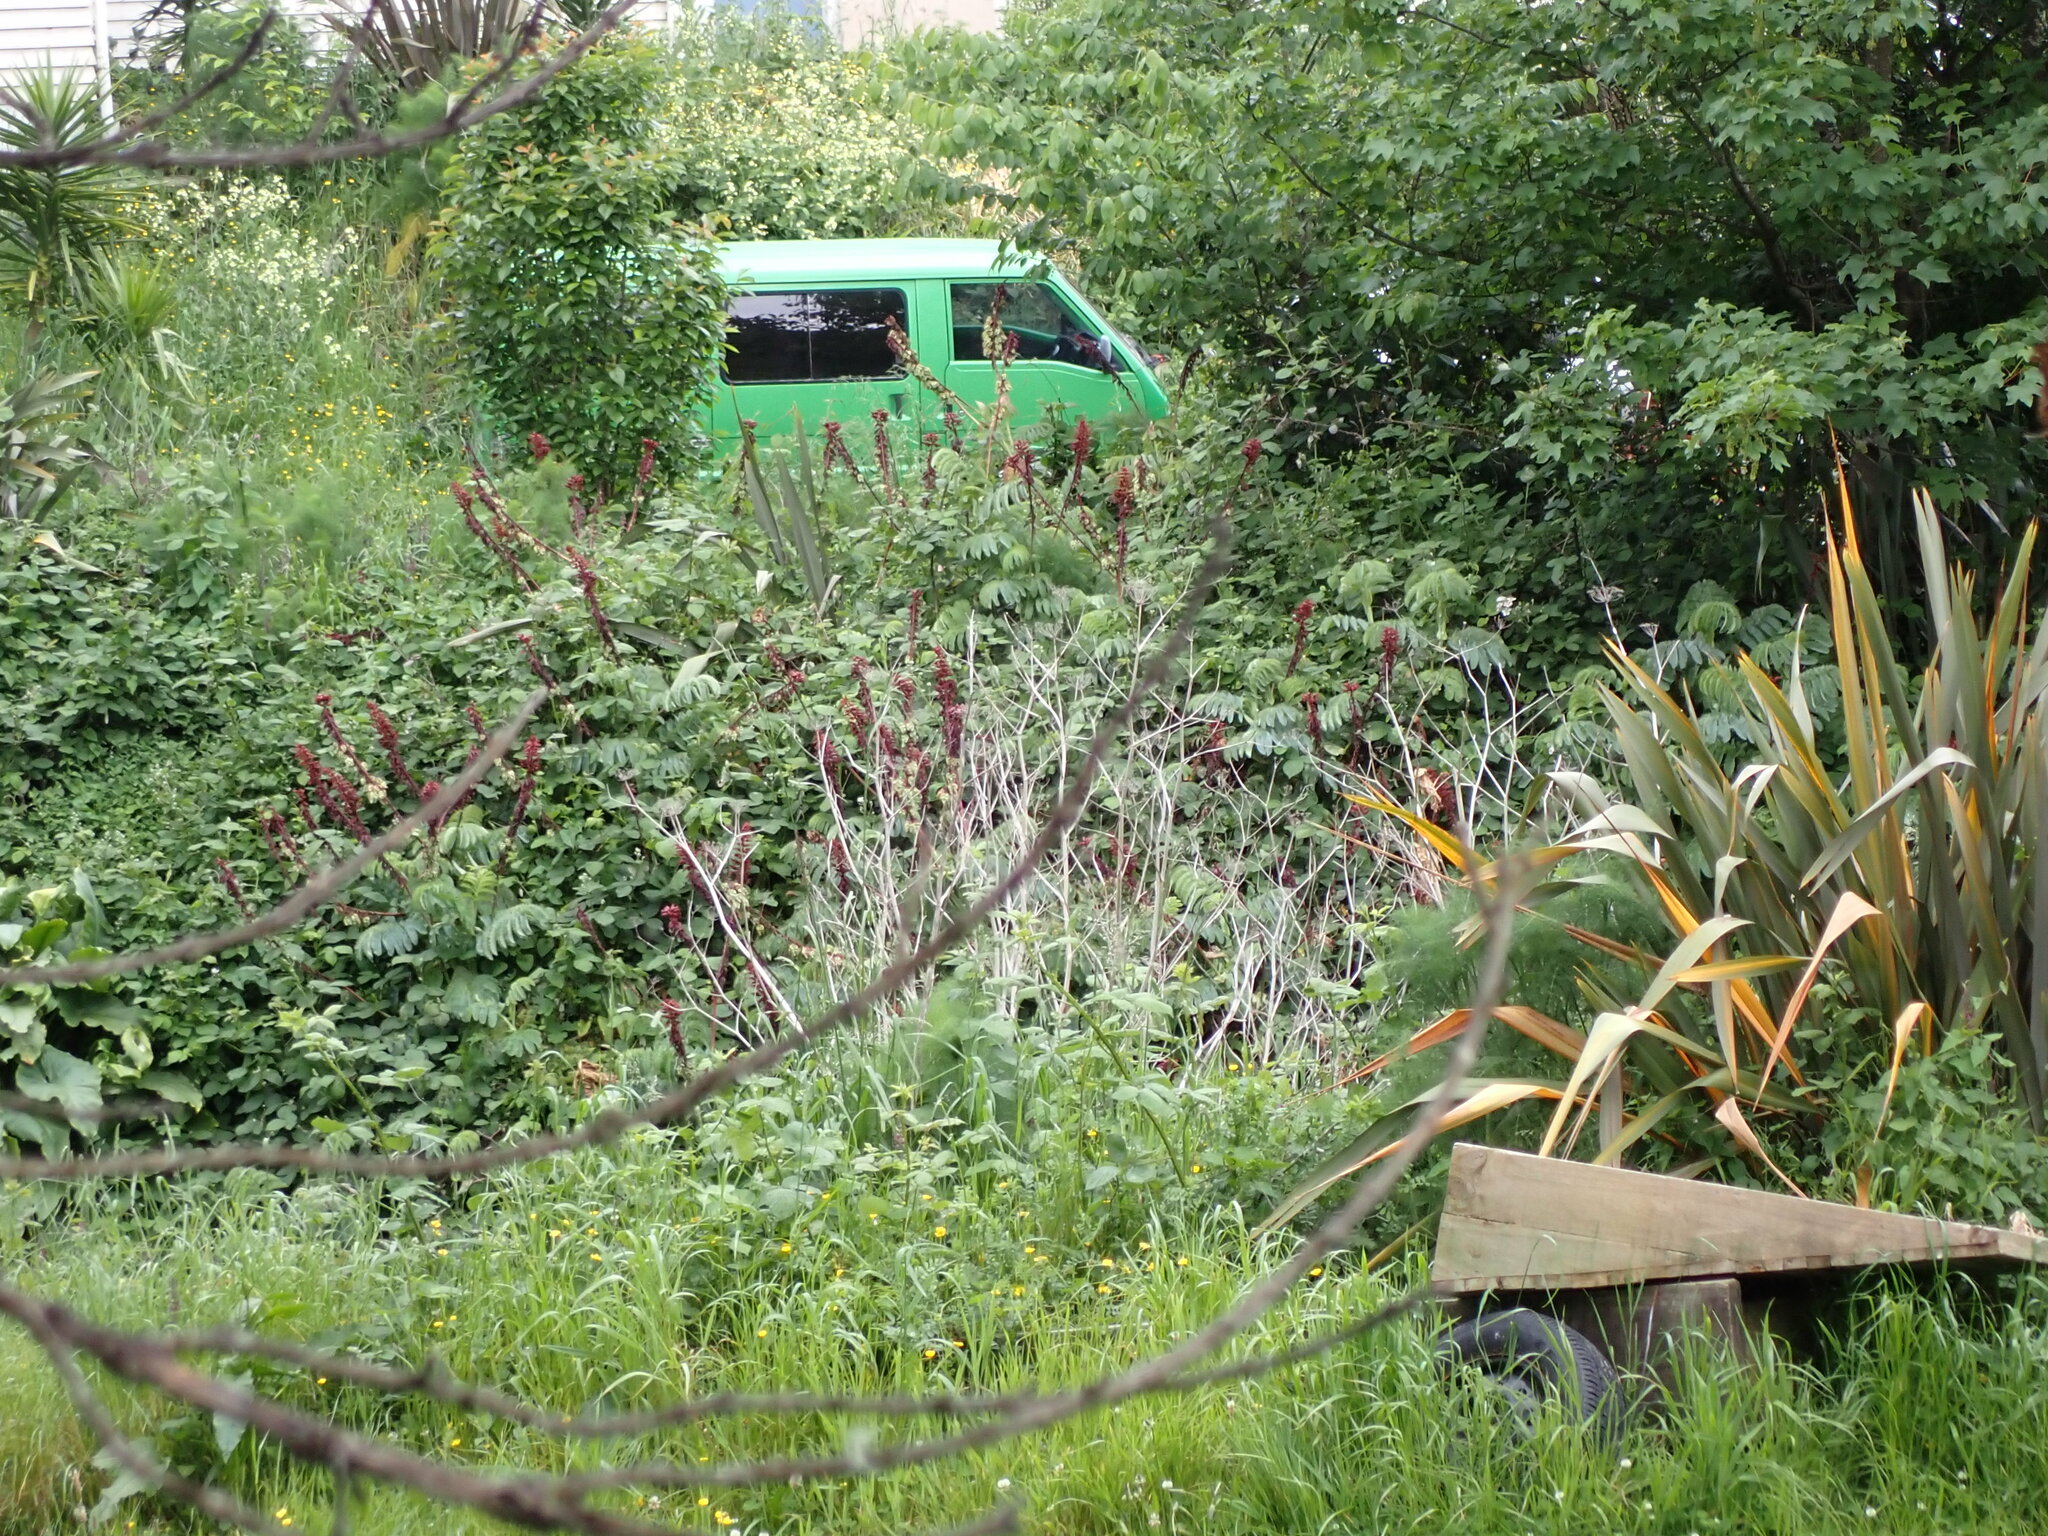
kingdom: Plantae
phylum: Tracheophyta
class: Magnoliopsida
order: Geraniales
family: Melianthaceae
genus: Melianthus
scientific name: Melianthus major
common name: Honey-flower
